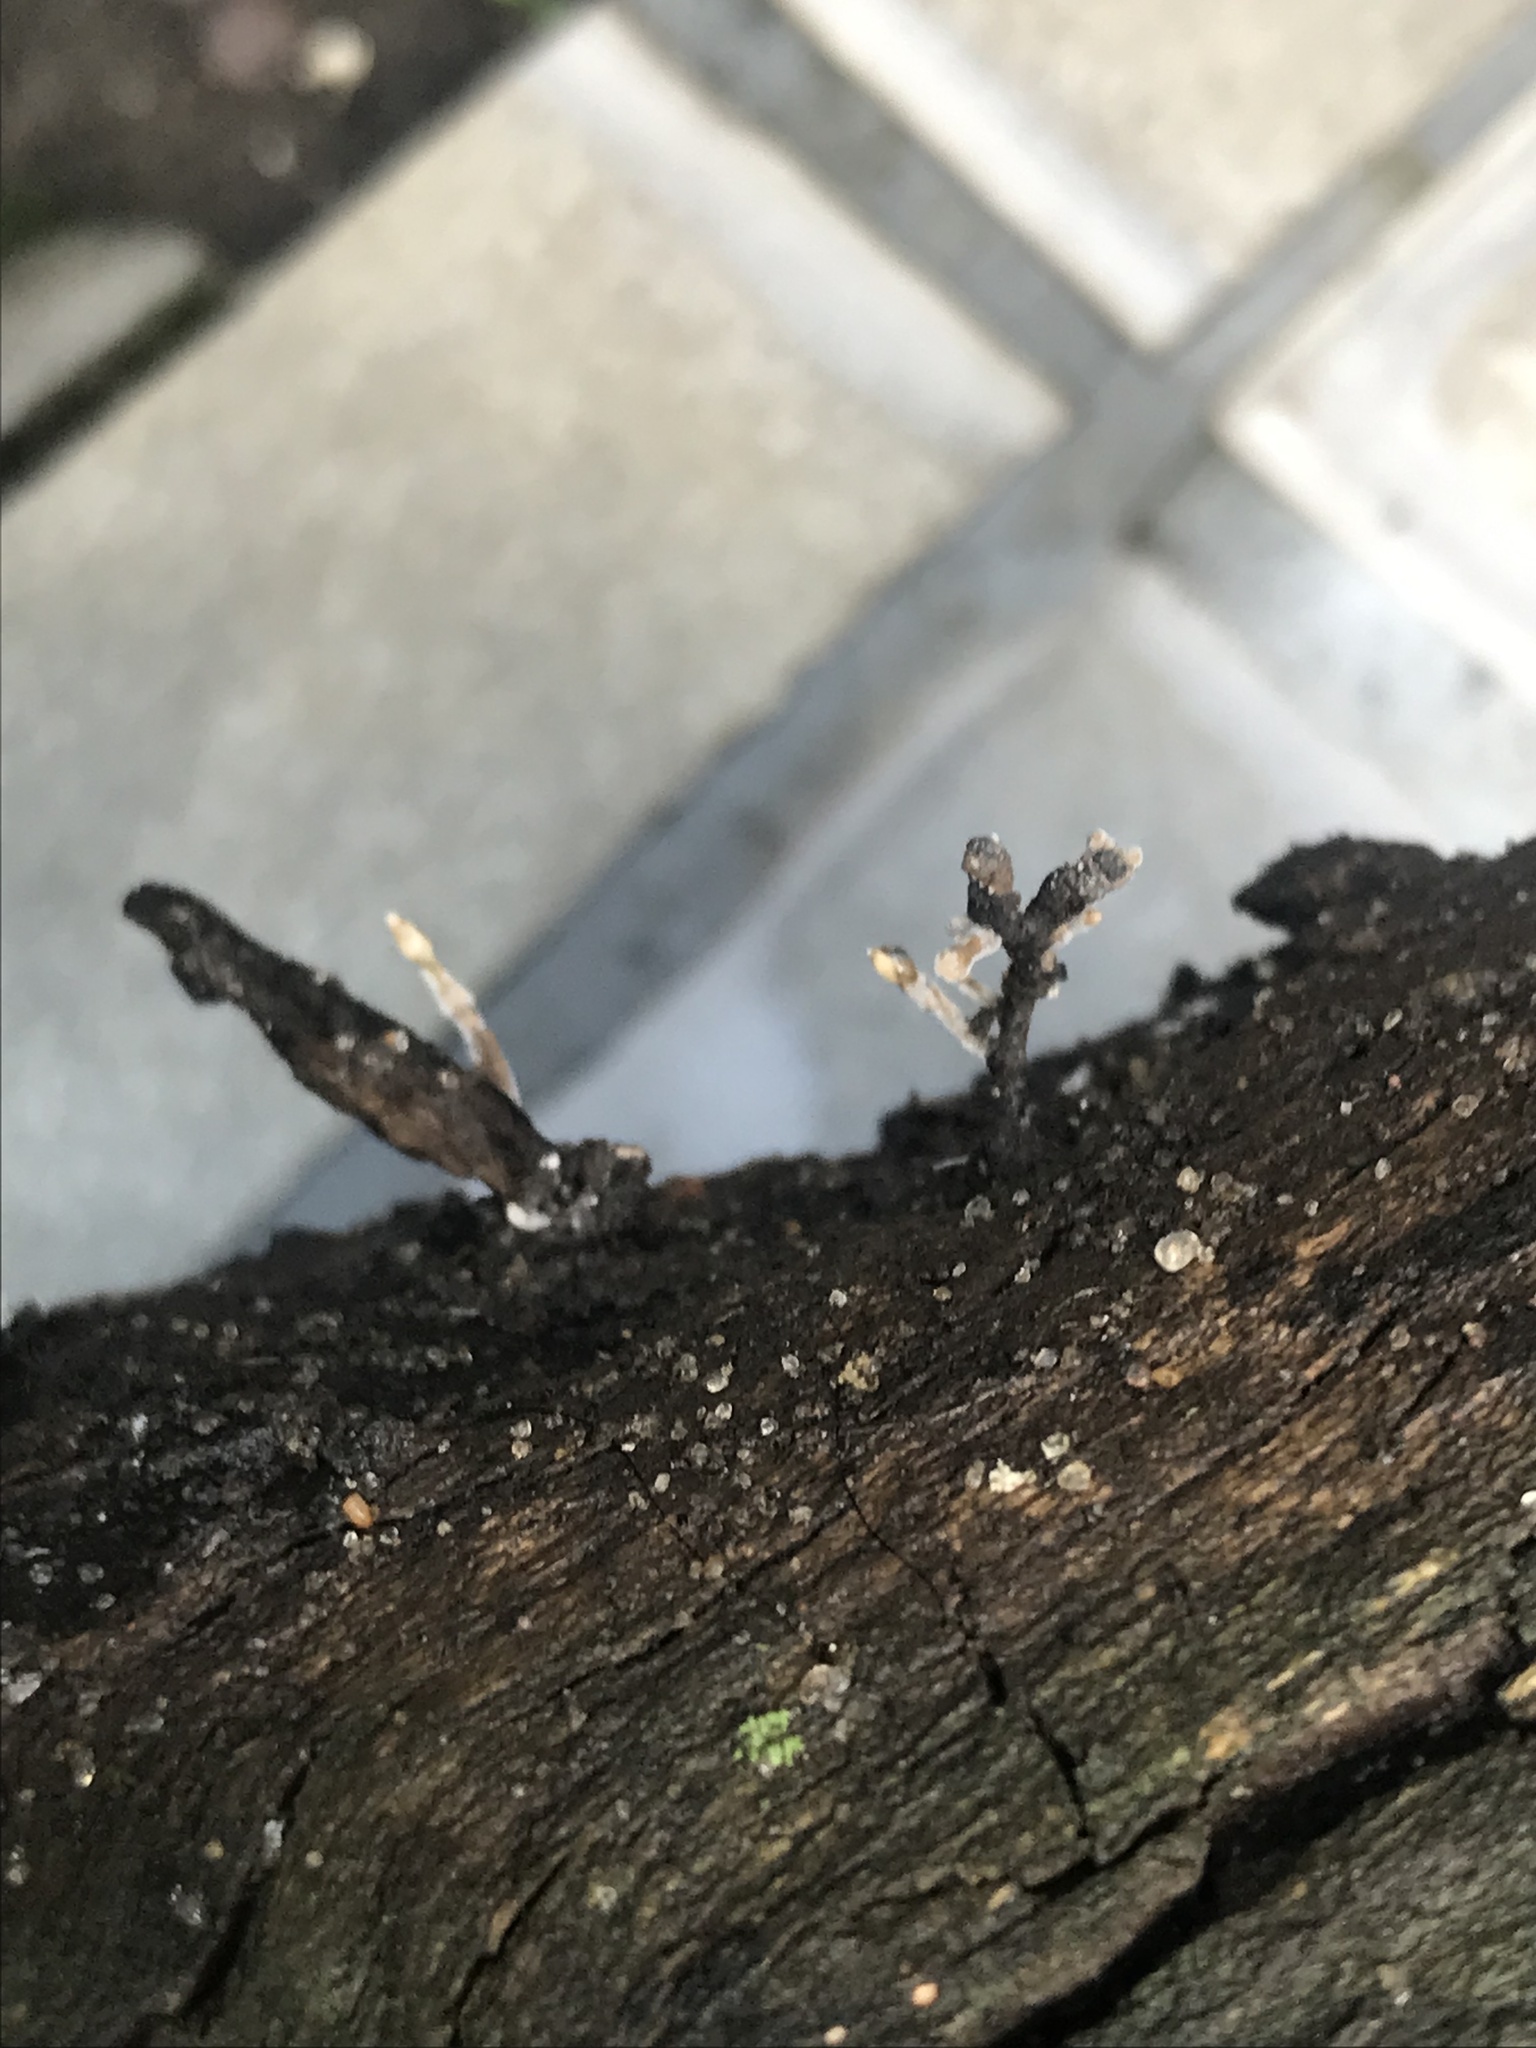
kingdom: Fungi
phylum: Ascomycota
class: Sordariomycetes
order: Xylariales
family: Xylariaceae
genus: Xylaria
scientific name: Xylaria longipes
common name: Dead moll's fingers
